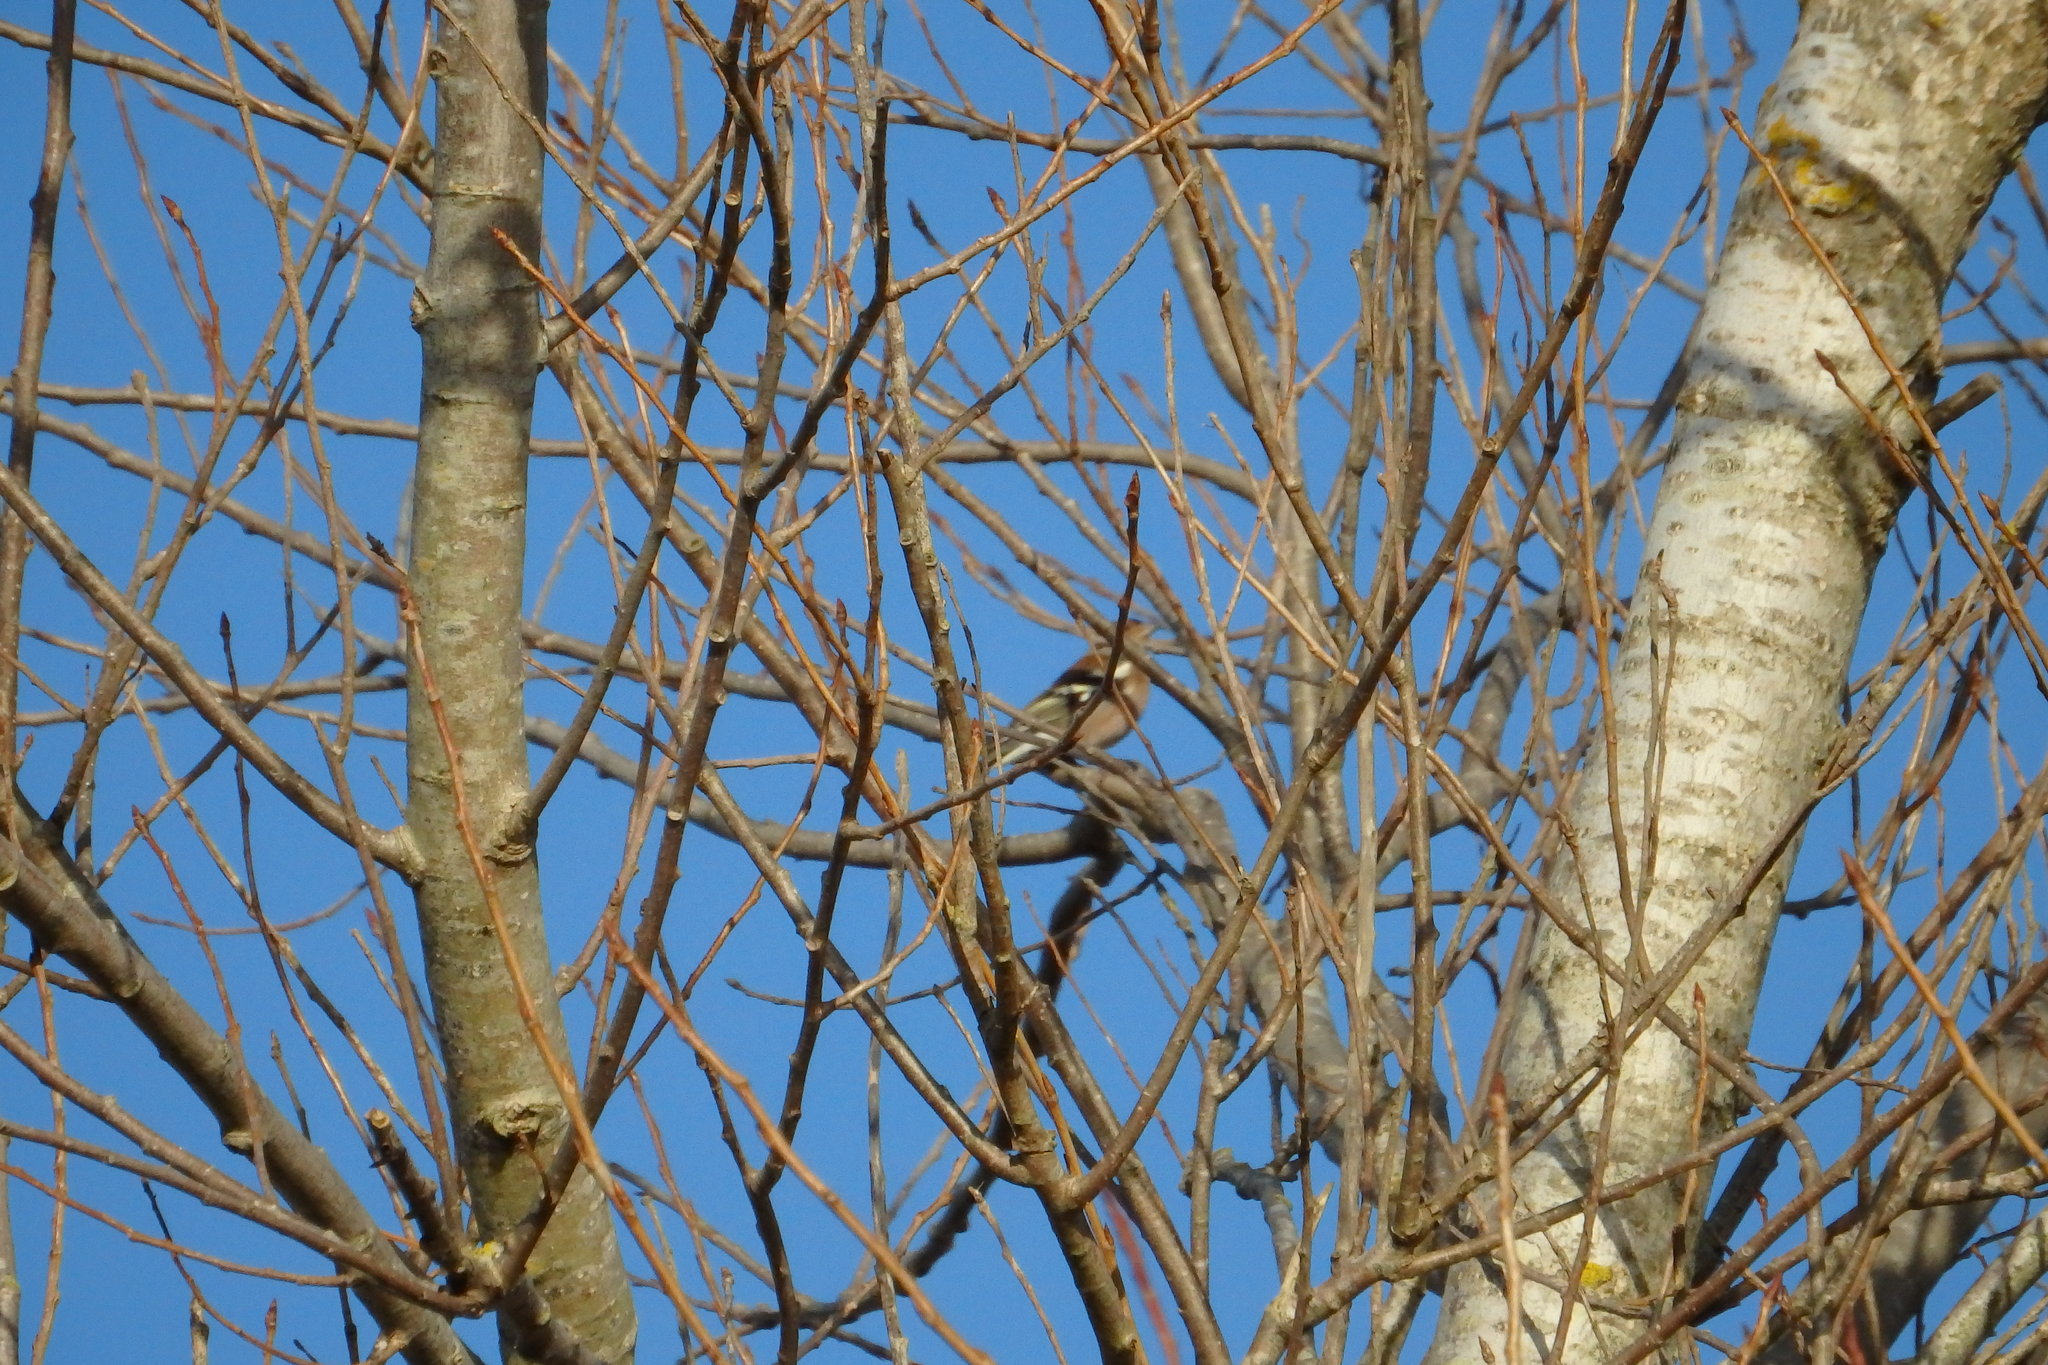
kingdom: Animalia
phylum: Chordata
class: Aves
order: Passeriformes
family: Fringillidae
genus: Fringilla
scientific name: Fringilla coelebs
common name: Common chaffinch
